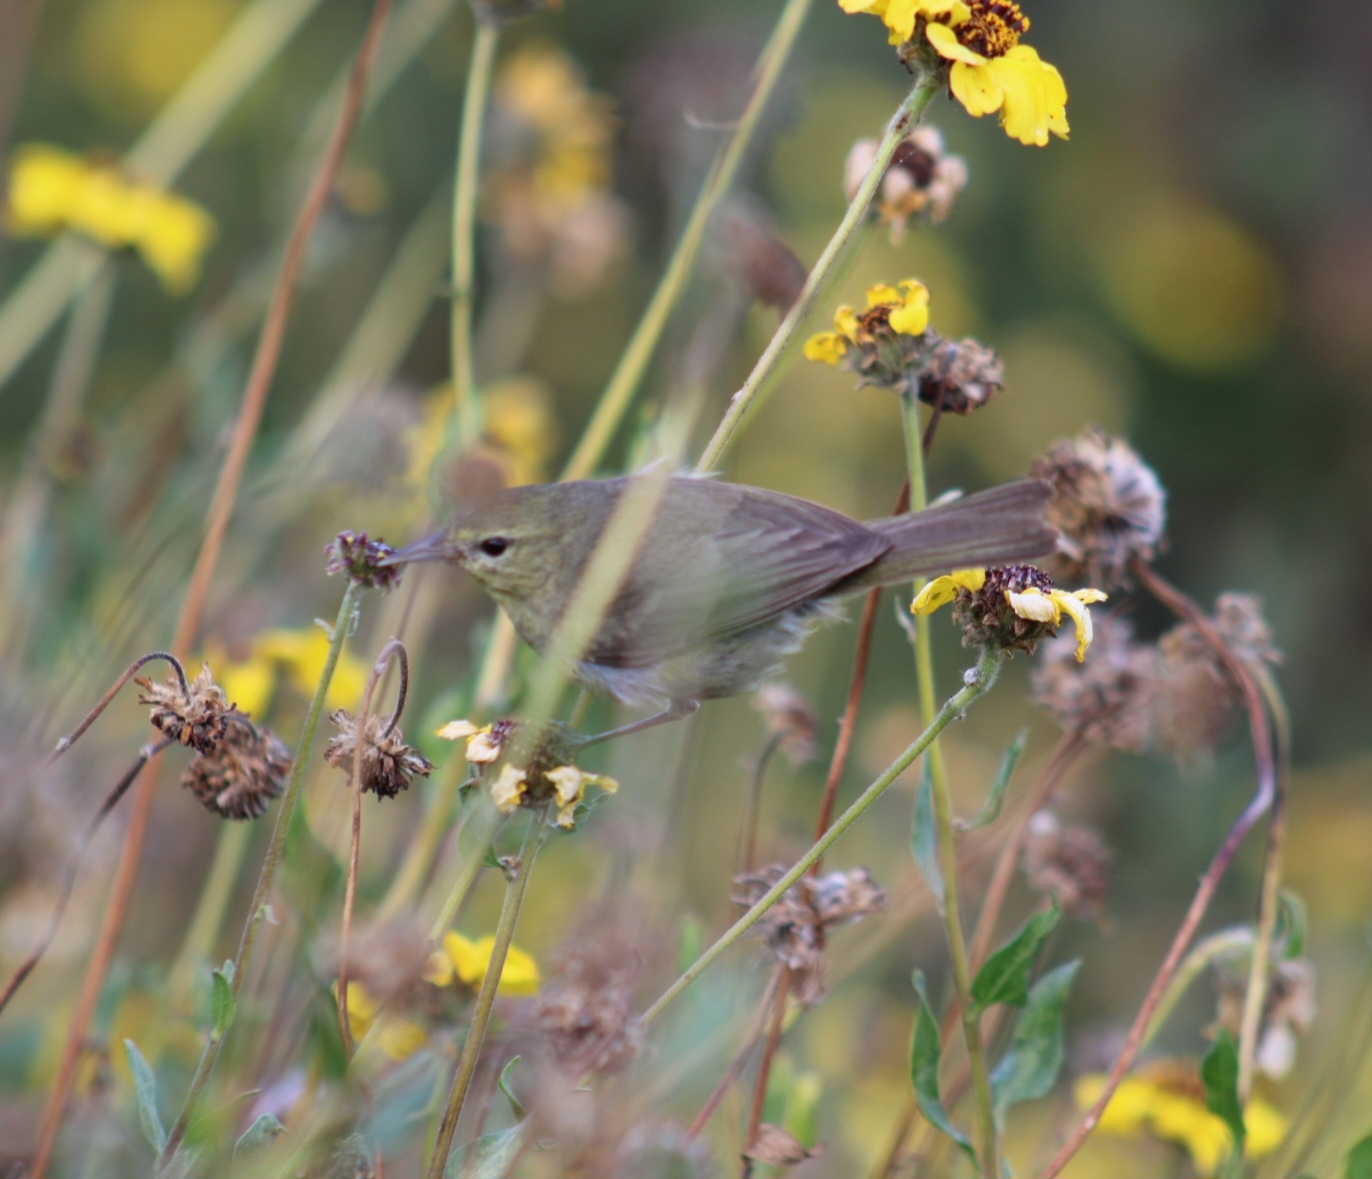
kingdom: Animalia
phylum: Chordata
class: Aves
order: Passeriformes
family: Parulidae
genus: Leiothlypis
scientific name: Leiothlypis celata
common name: Orange-crowned warbler
